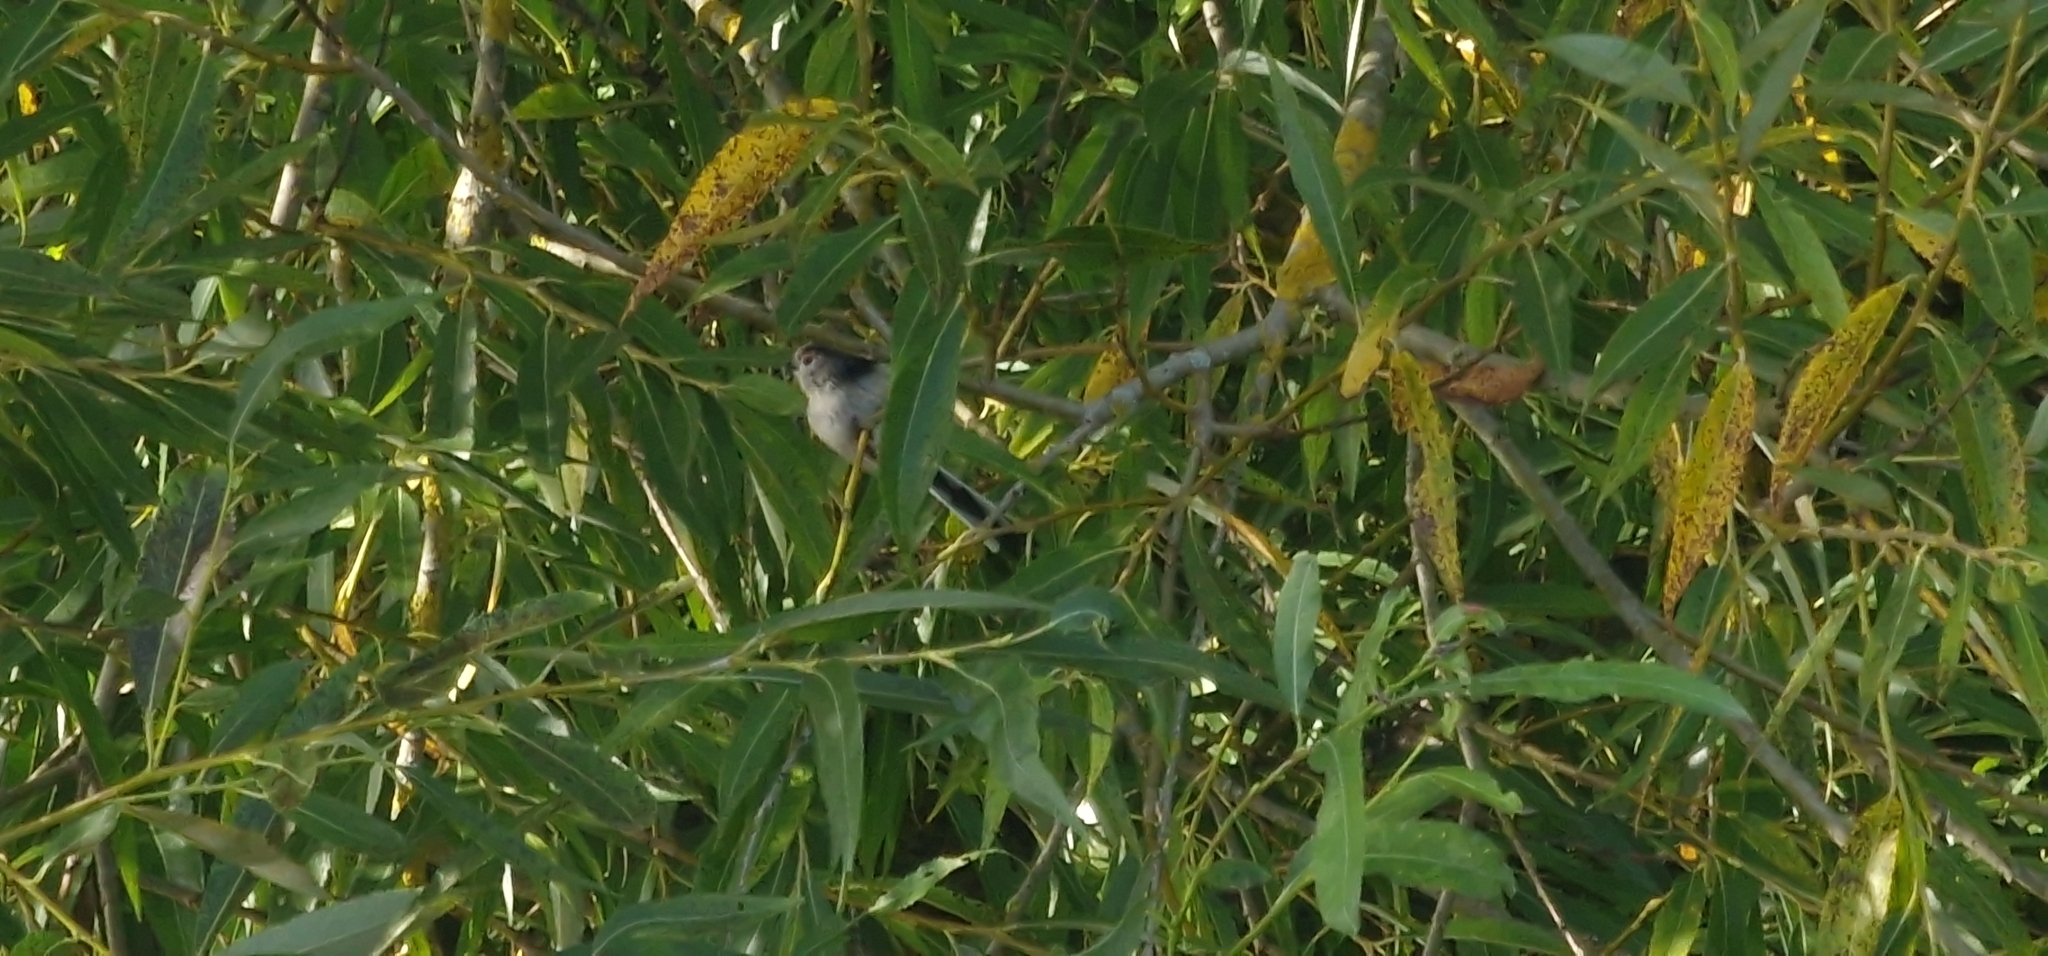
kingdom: Animalia
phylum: Chordata
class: Aves
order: Passeriformes
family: Aegithalidae
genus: Aegithalos
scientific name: Aegithalos caudatus
